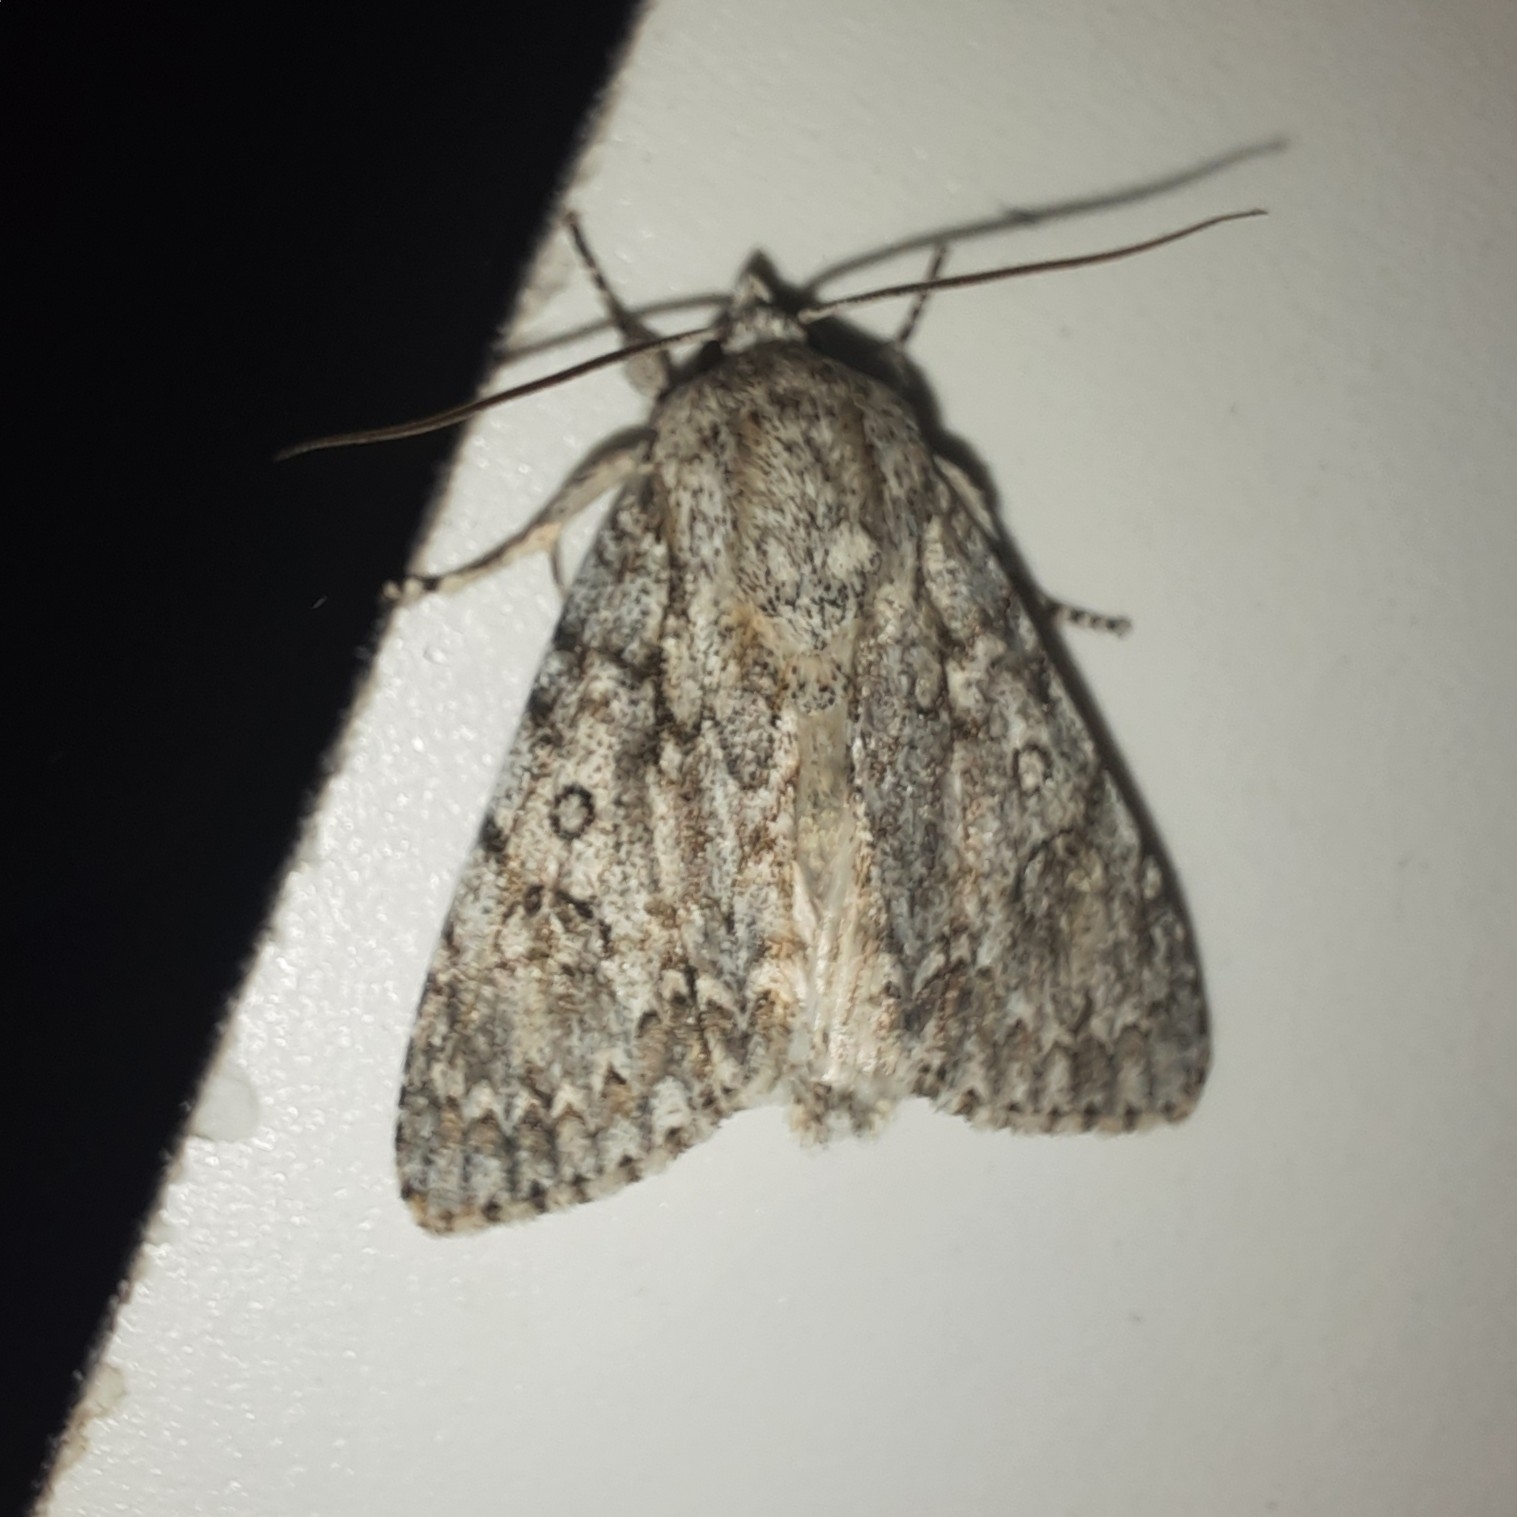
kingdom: Animalia
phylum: Arthropoda
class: Insecta
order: Lepidoptera
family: Noctuidae
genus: Acronicta
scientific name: Acronicta aceris
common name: Sycamore
